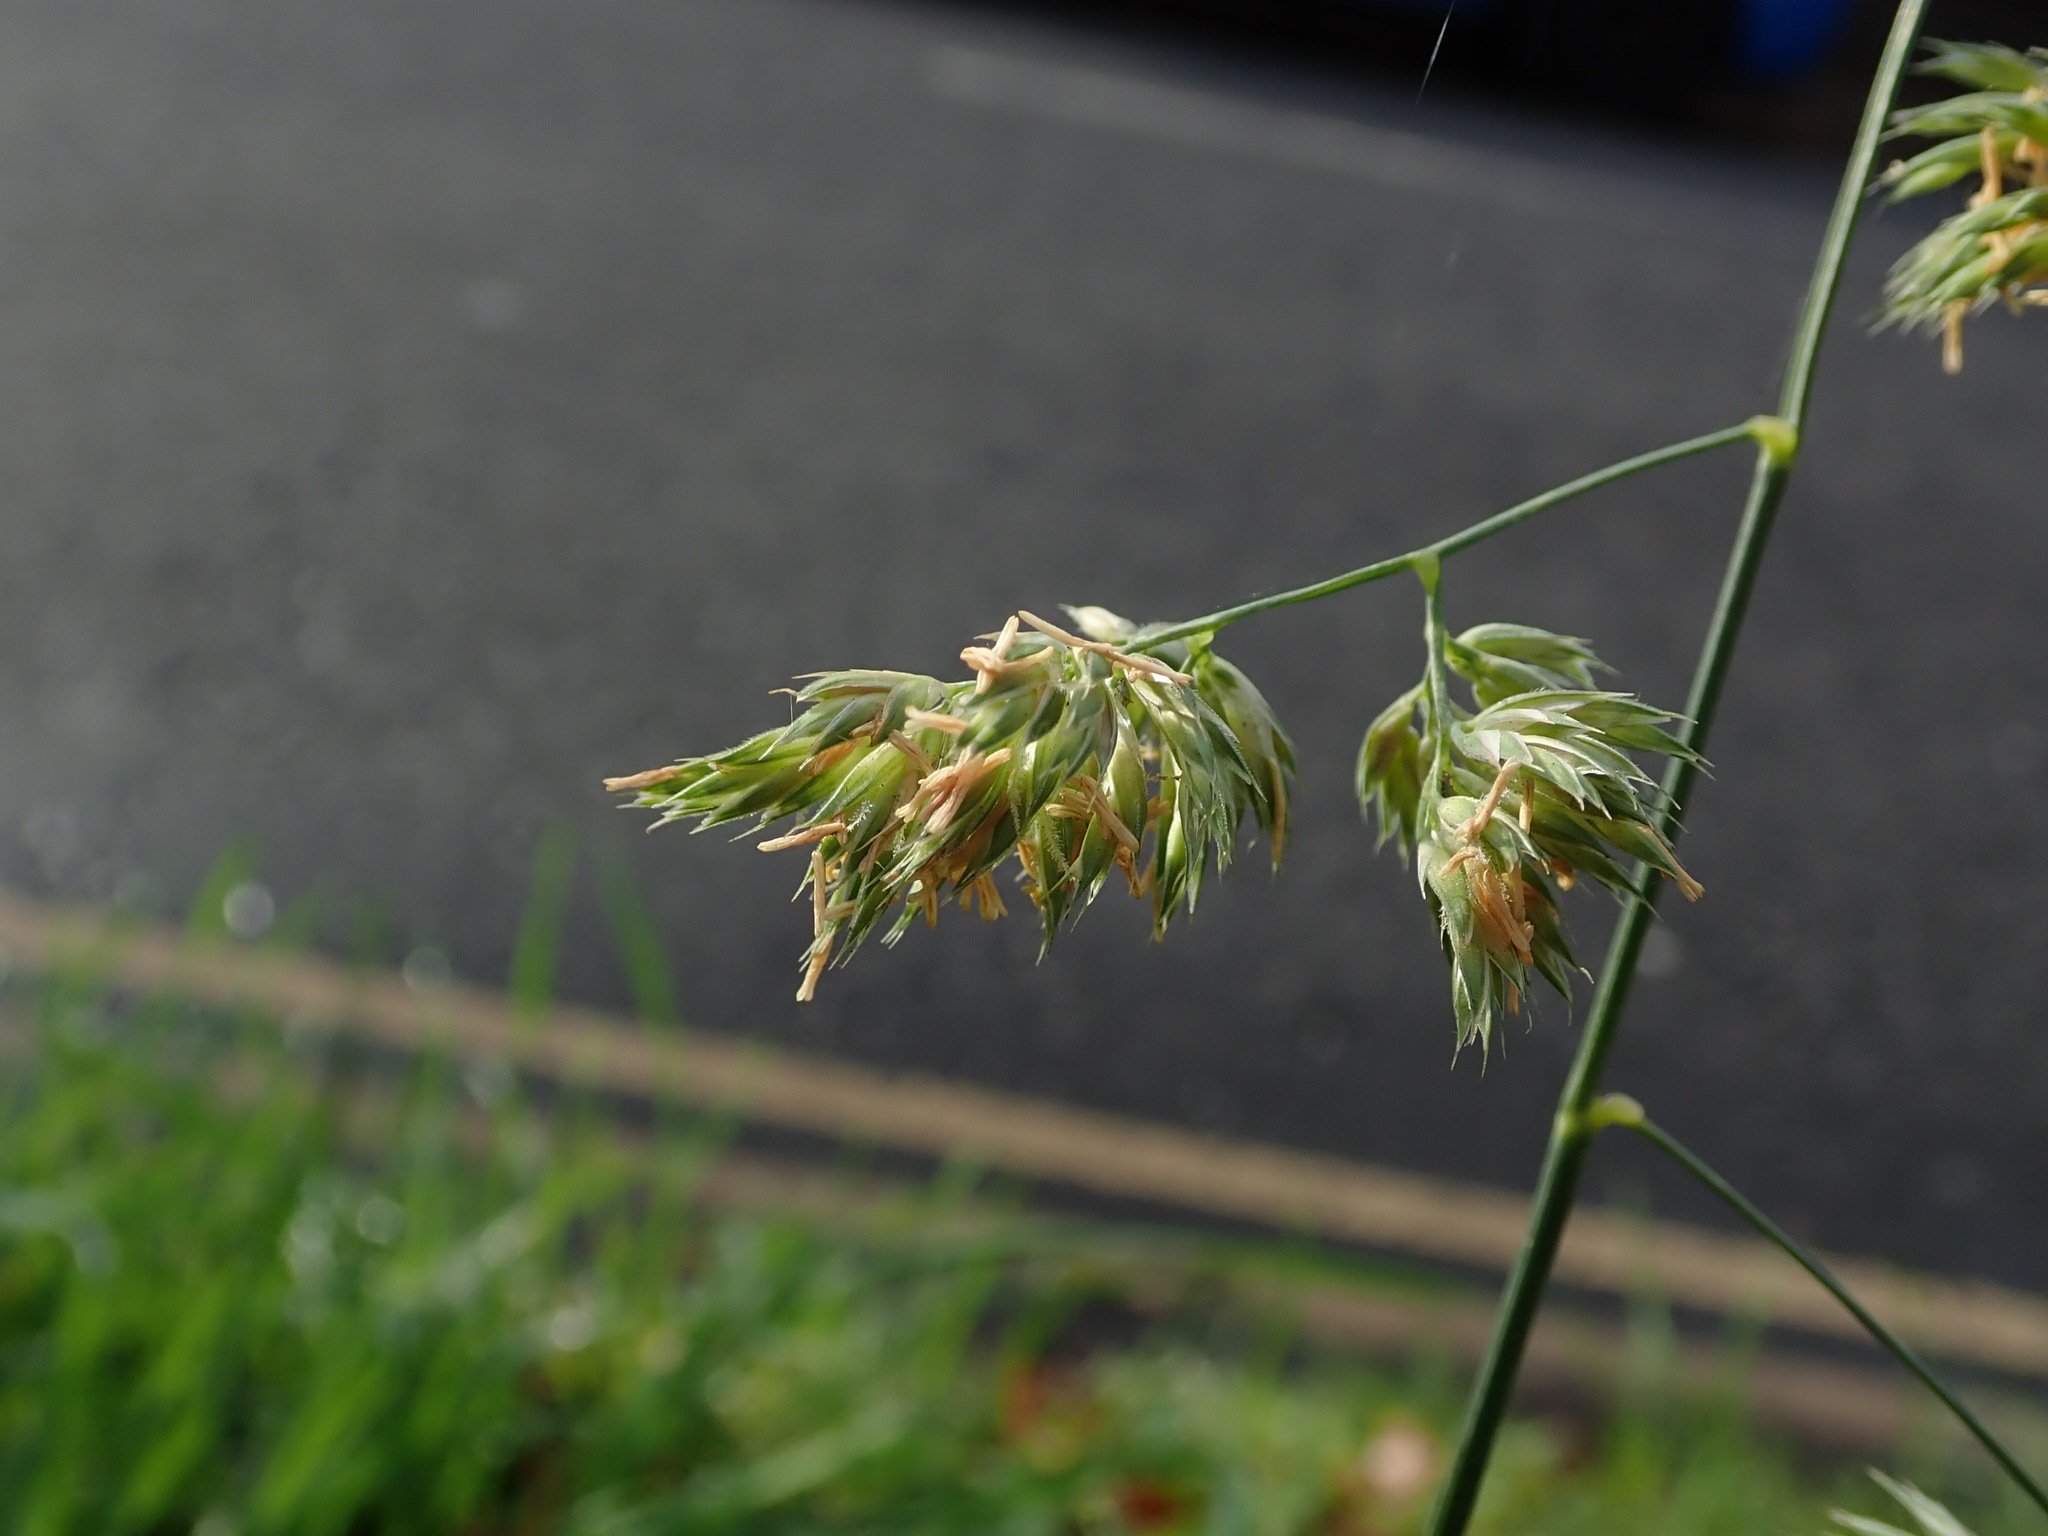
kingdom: Plantae
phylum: Tracheophyta
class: Liliopsida
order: Poales
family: Poaceae
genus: Dactylis
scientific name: Dactylis glomerata
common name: Orchardgrass
